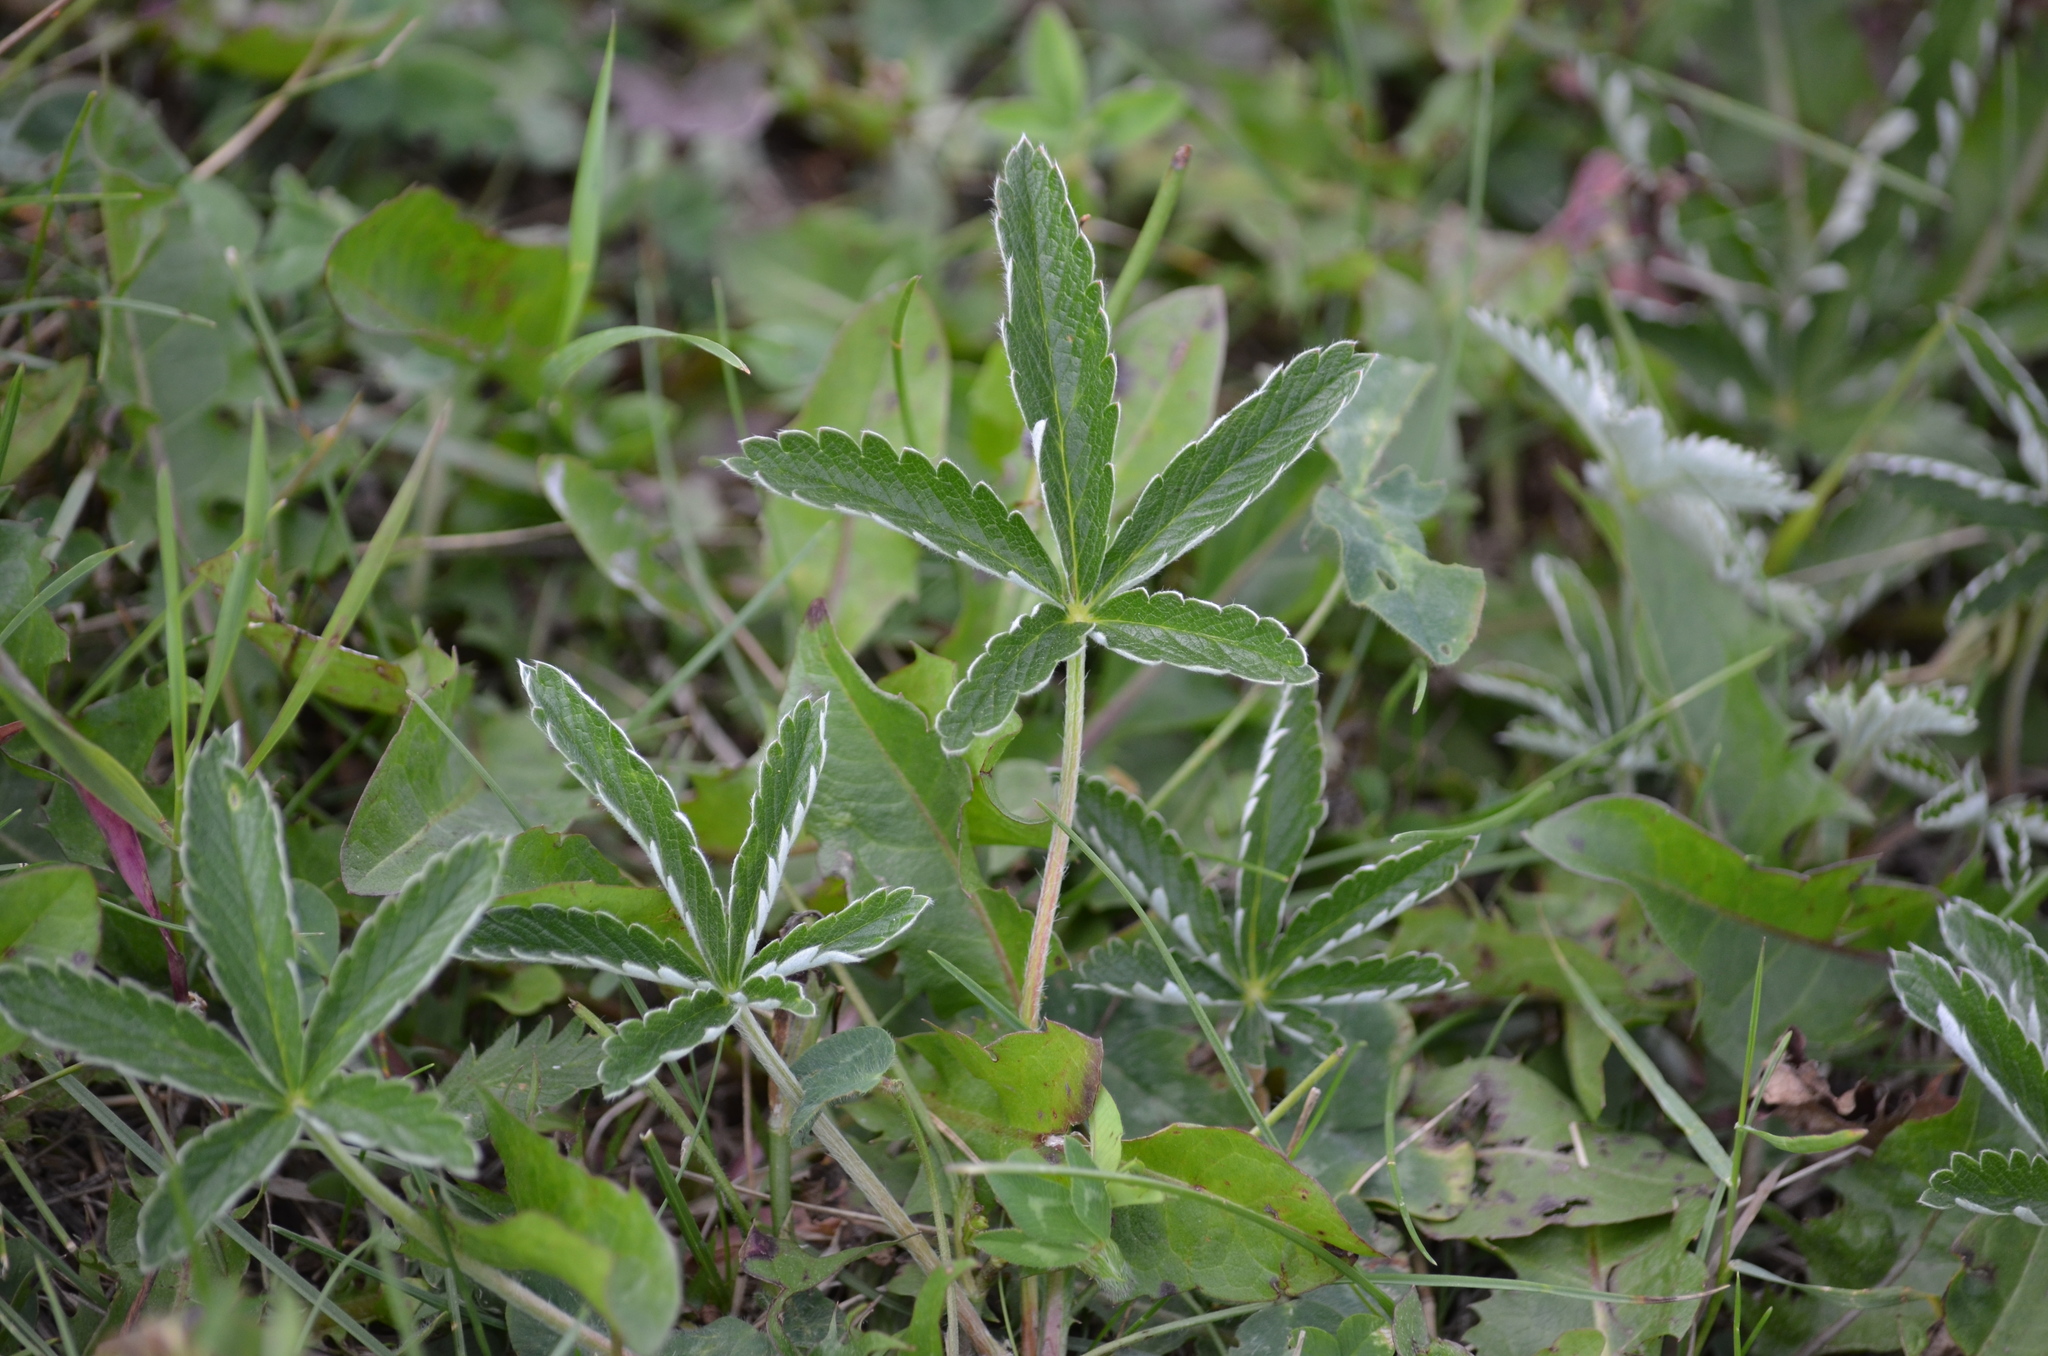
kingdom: Plantae
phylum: Tracheophyta
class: Magnoliopsida
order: Rosales
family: Rosaceae
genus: Potentilla
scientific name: Potentilla pulcherrima
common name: Beautiful cinquefoil
